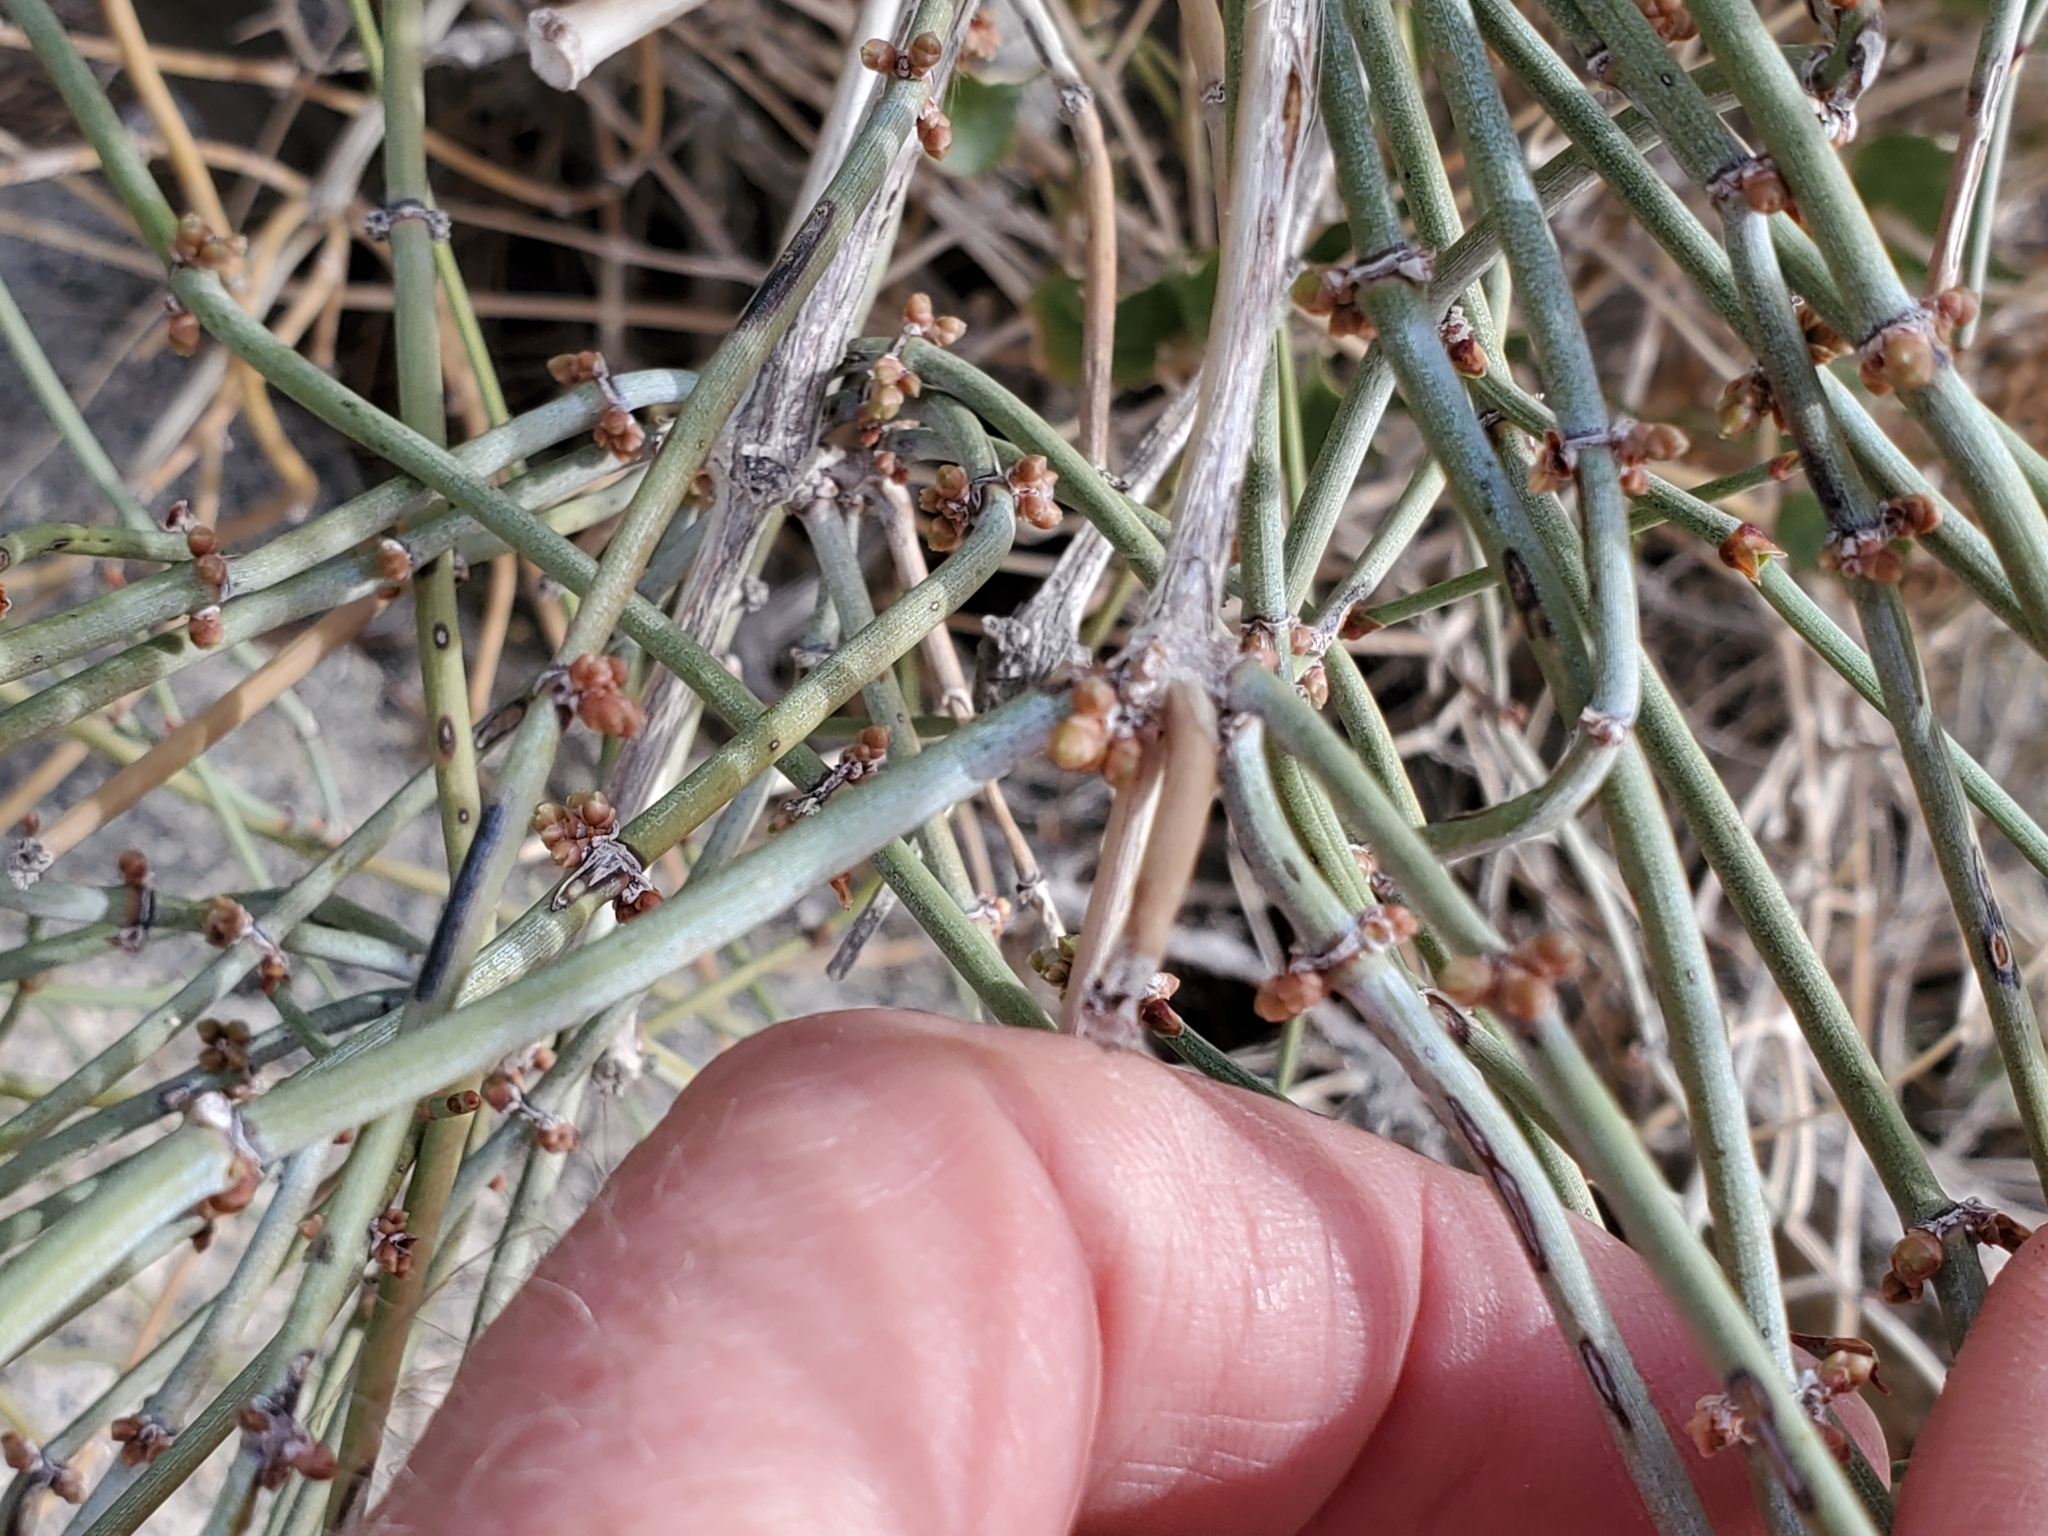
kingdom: Plantae
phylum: Tracheophyta
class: Gnetopsida
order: Ephedrales
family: Ephedraceae
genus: Ephedra
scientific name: Ephedra aspera
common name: Boundary ephedra
